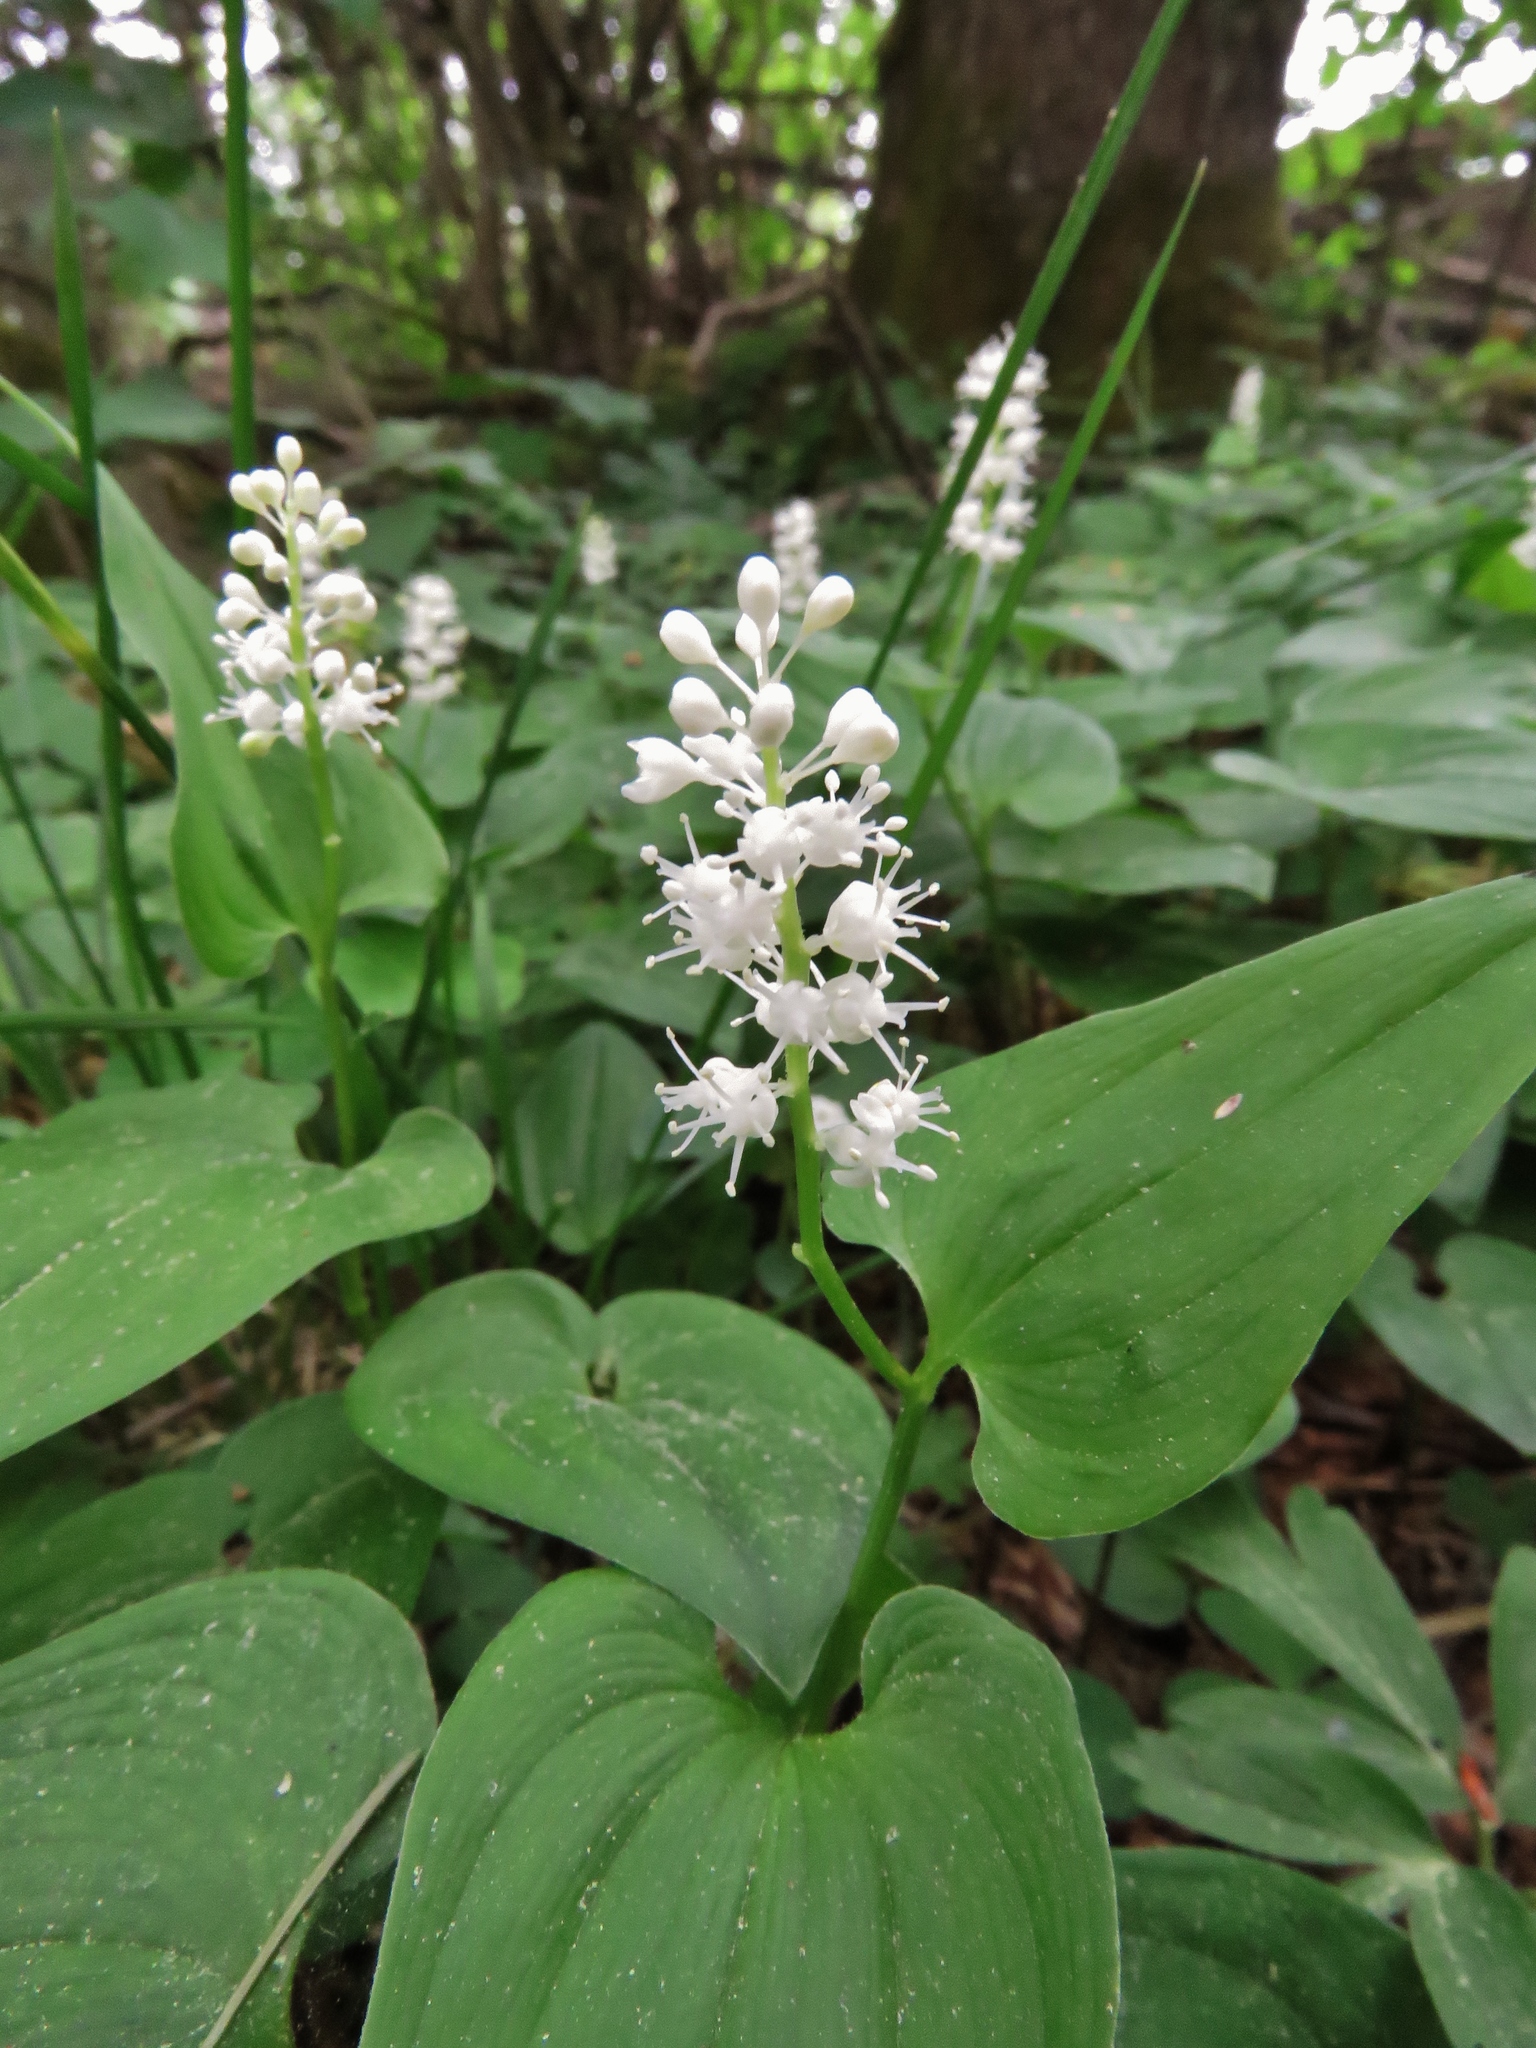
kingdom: Plantae
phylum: Tracheophyta
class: Liliopsida
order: Asparagales
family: Asparagaceae
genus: Maianthemum
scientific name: Maianthemum bifolium
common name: May lily
